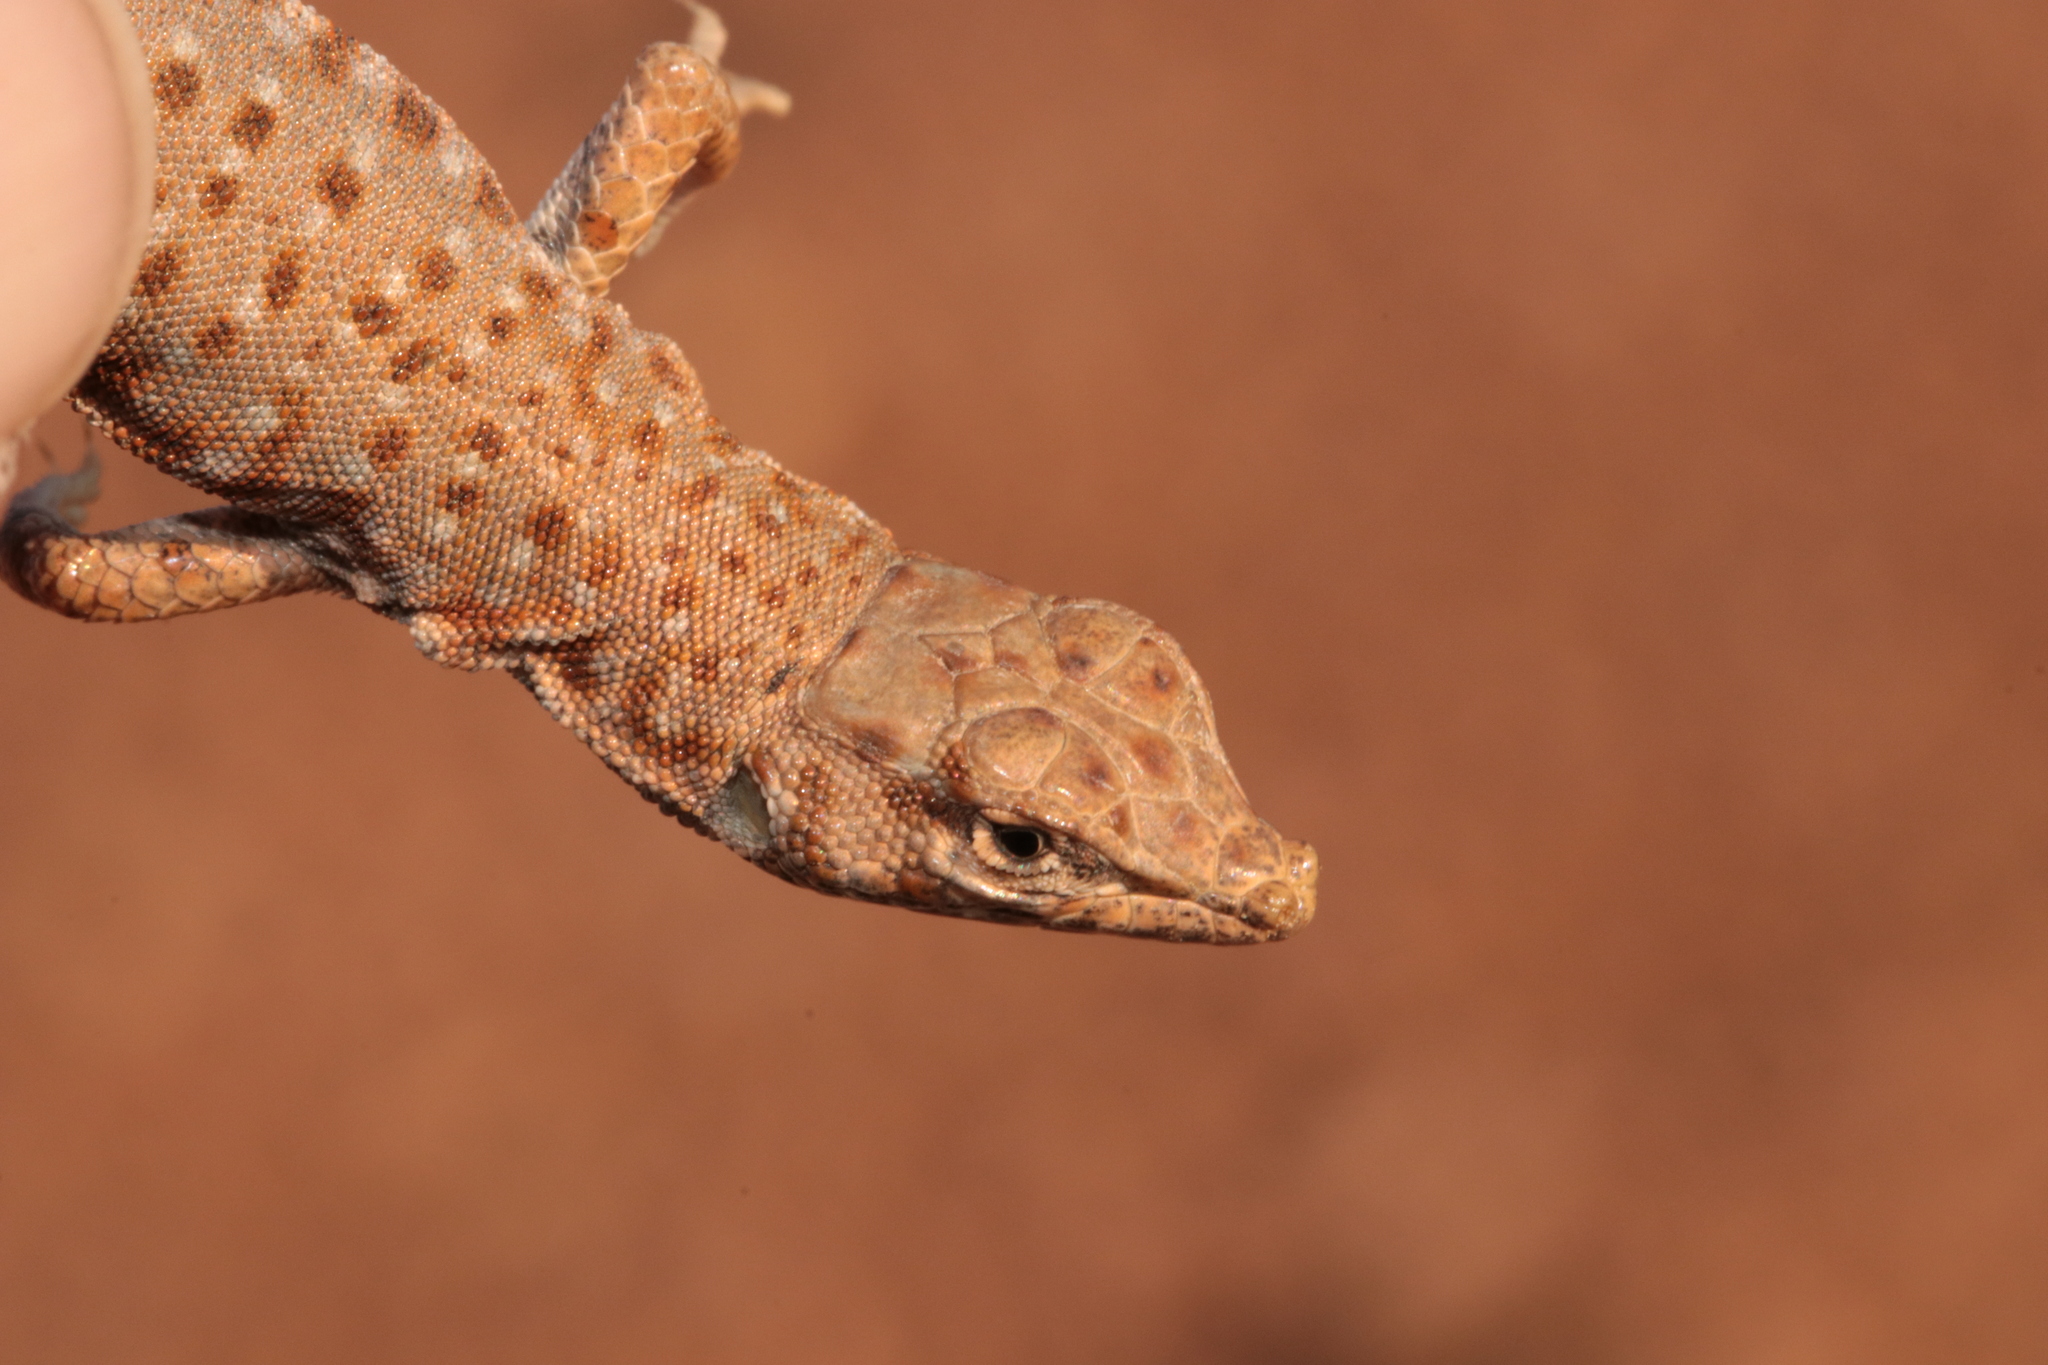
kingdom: Animalia
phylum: Chordata
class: Squamata
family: Lacertidae
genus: Mesalina
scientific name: Mesalina brevirostris
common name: Blanford's short-nosed desert lizard
